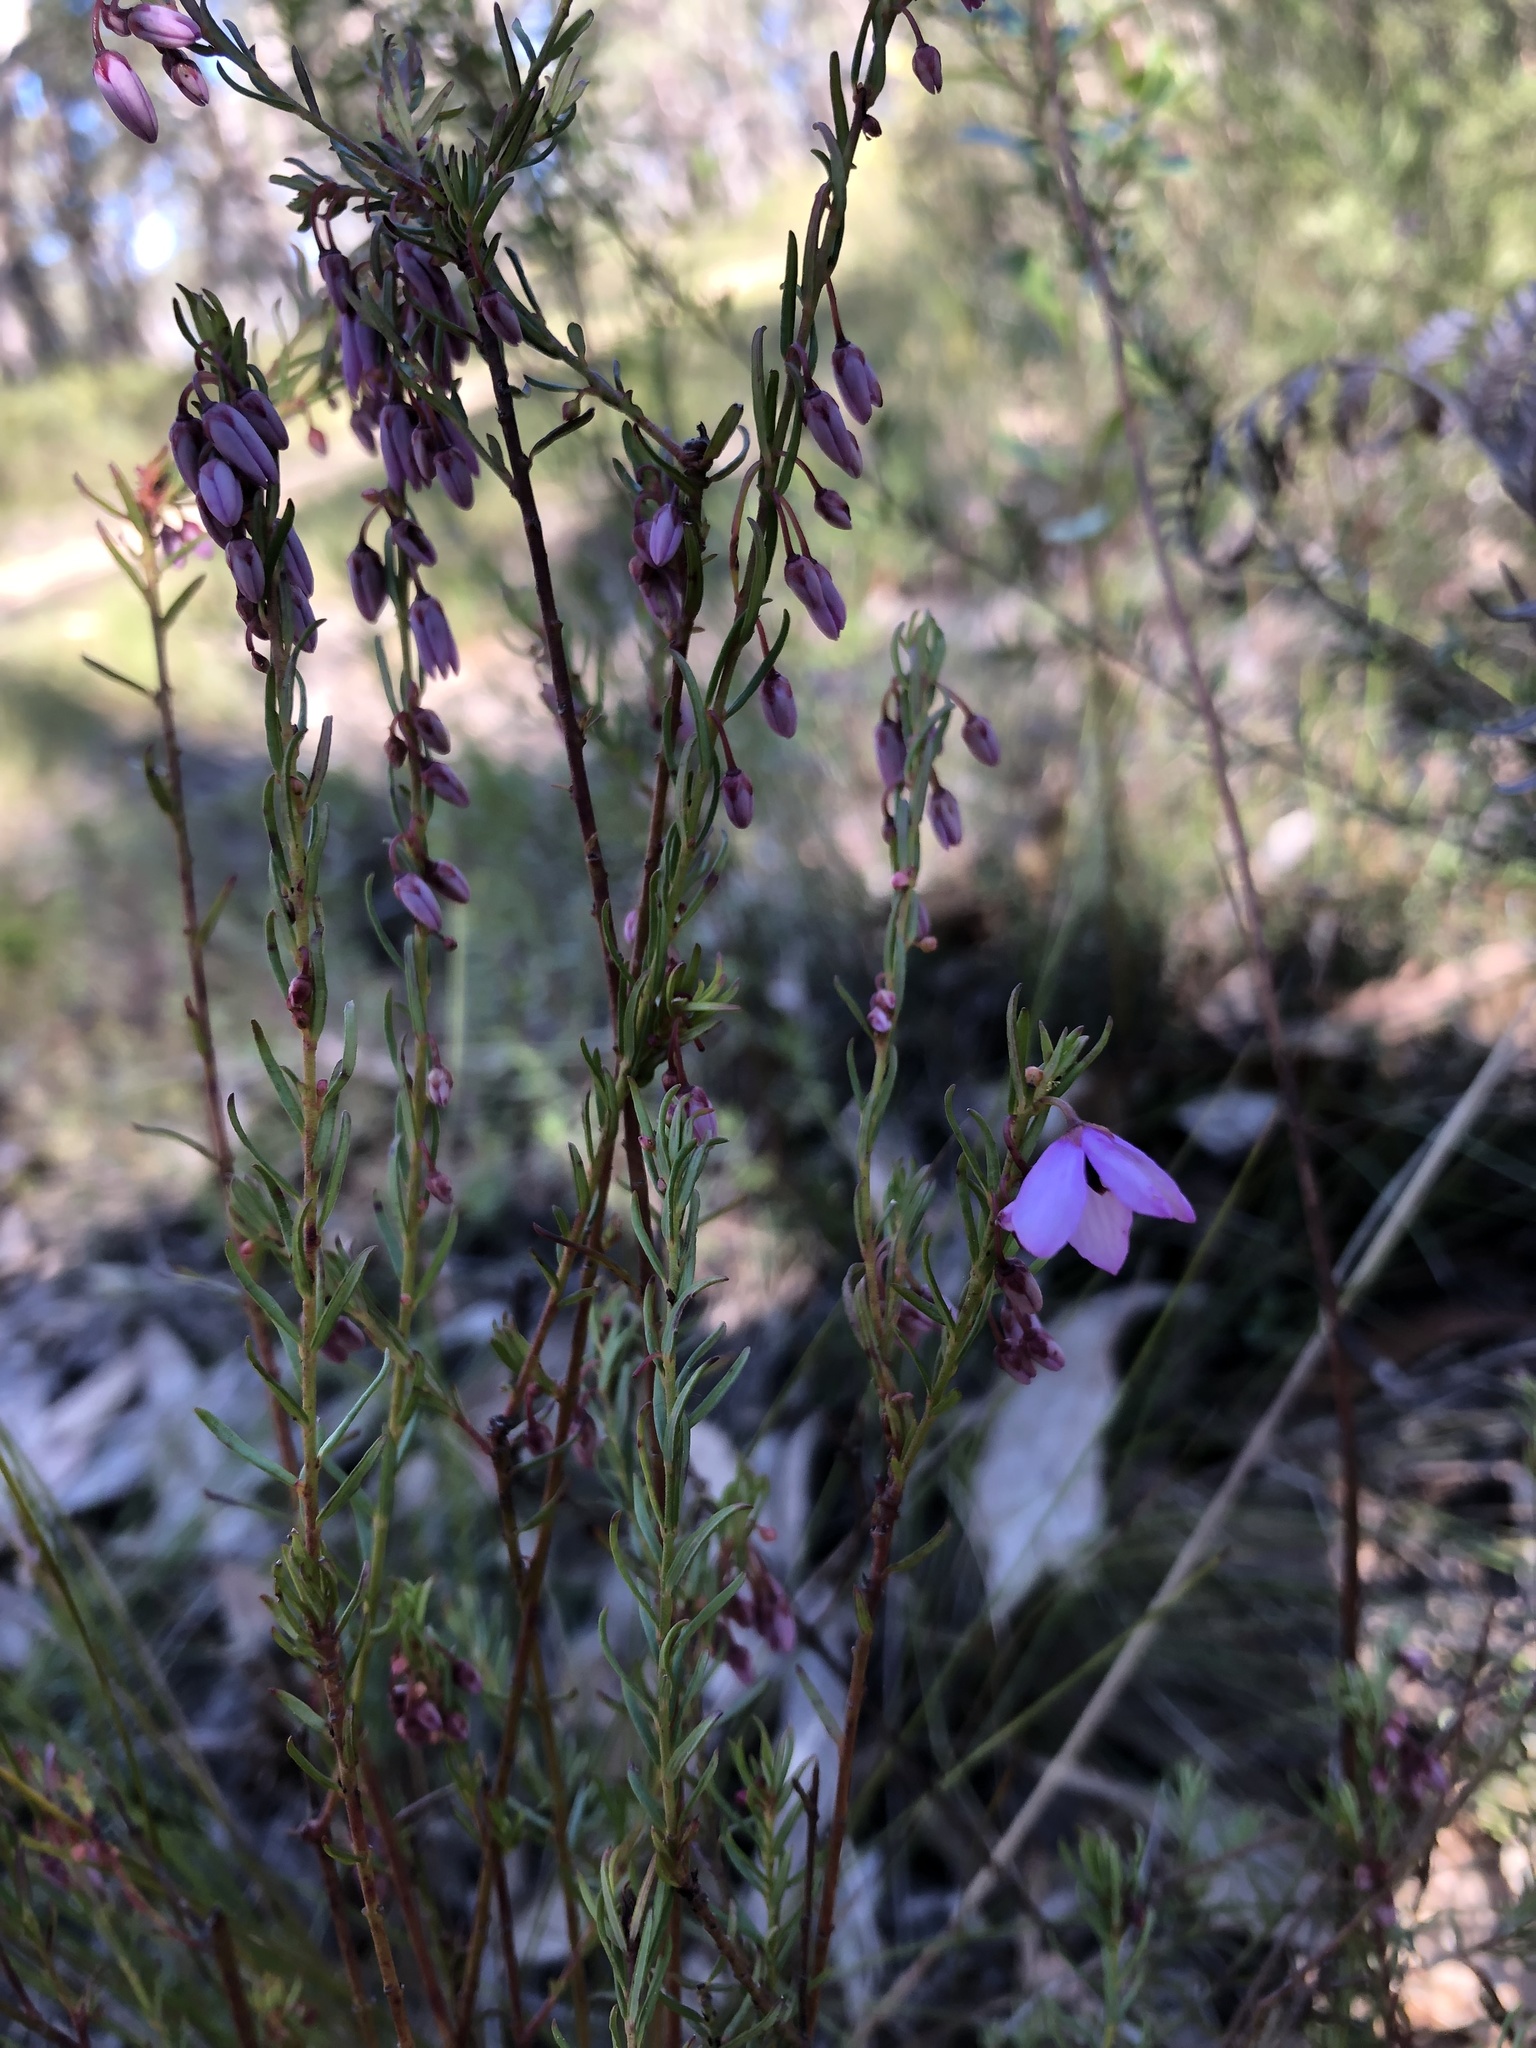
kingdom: Plantae
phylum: Tracheophyta
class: Magnoliopsida
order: Oxalidales
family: Elaeocarpaceae
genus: Tetratheca
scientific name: Tetratheca pilosa
